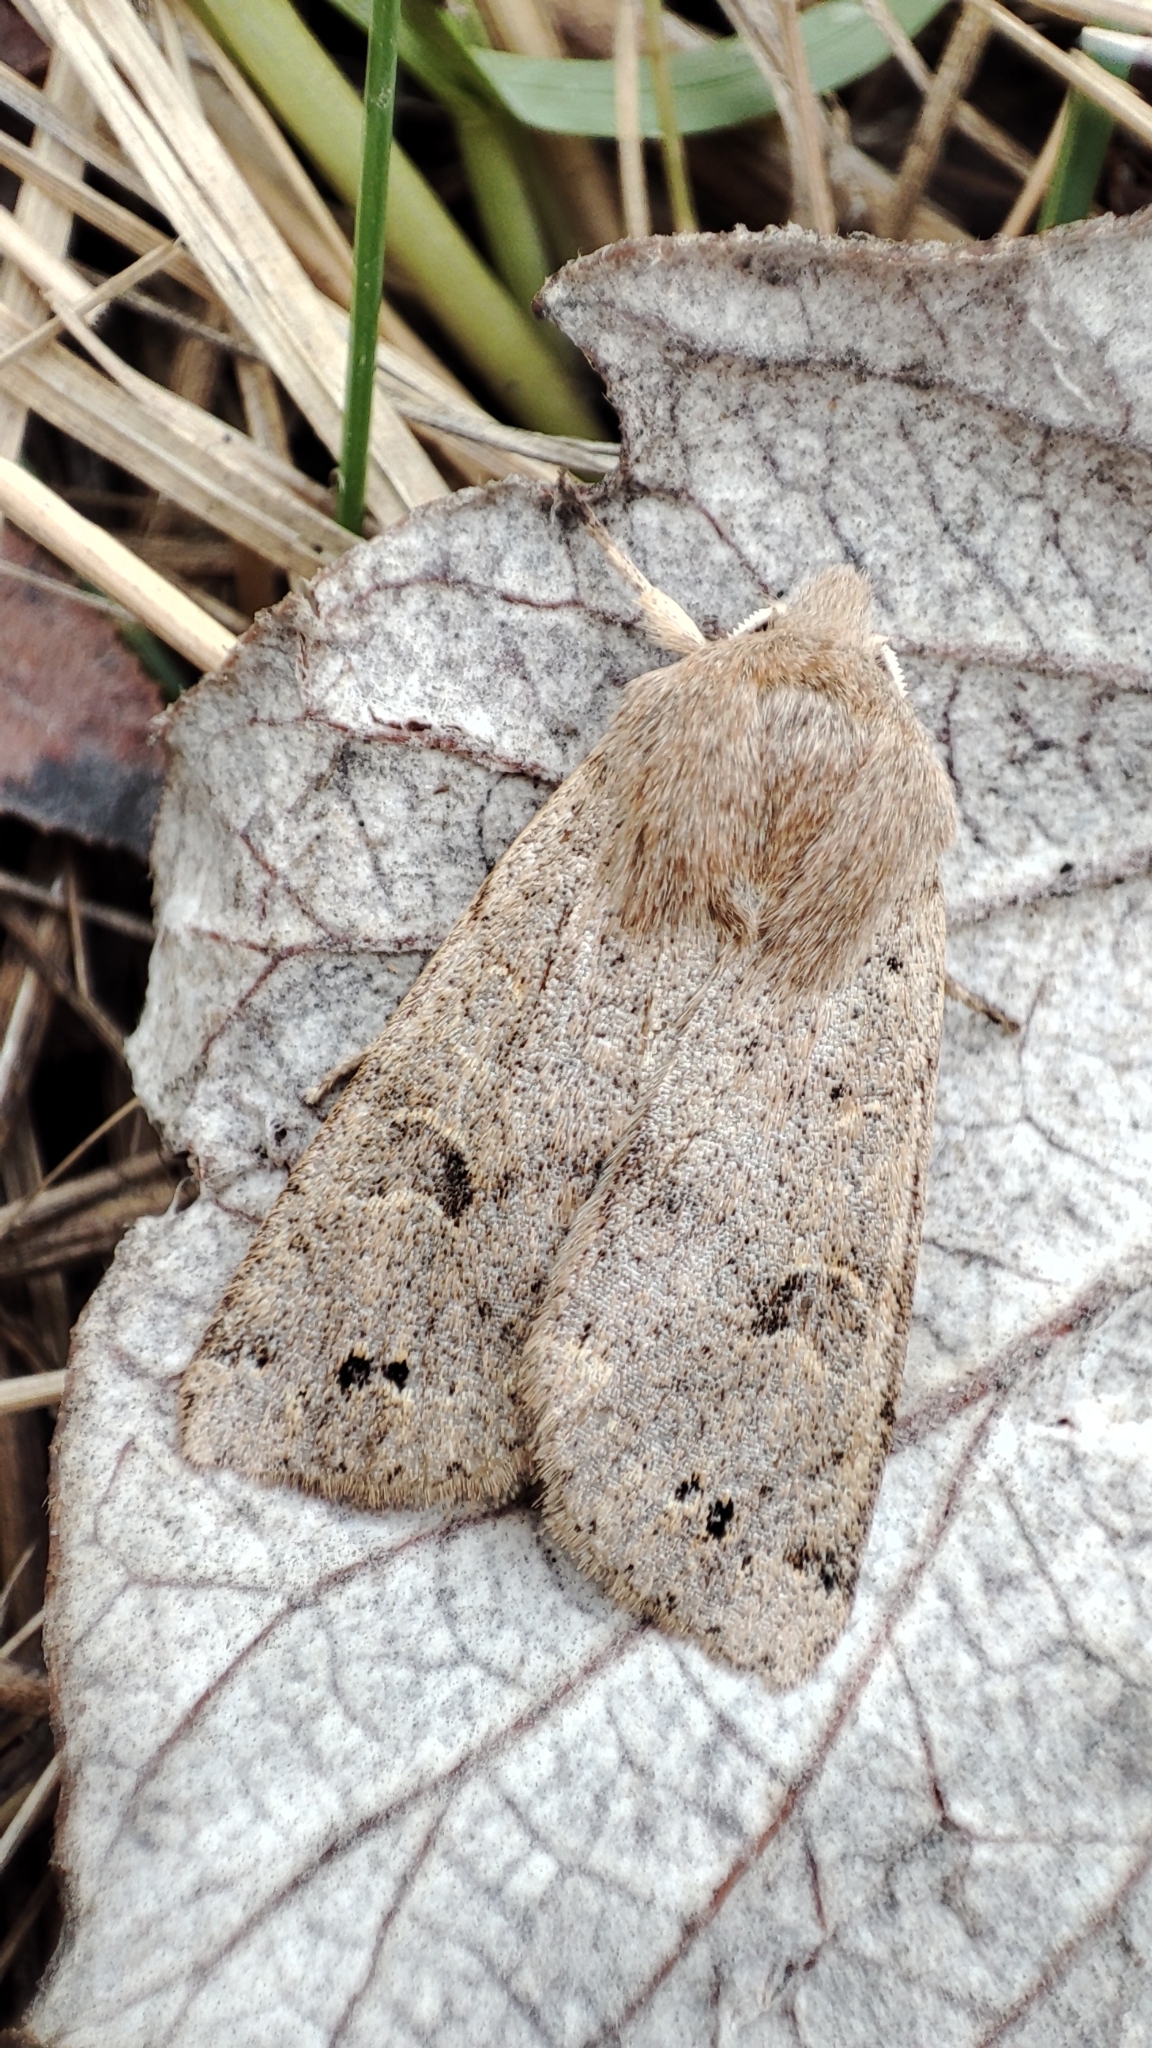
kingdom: Animalia
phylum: Arthropoda
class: Insecta
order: Lepidoptera
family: Noctuidae
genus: Anorthoa
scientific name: Anorthoa munda
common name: Twin-spotted quaker
